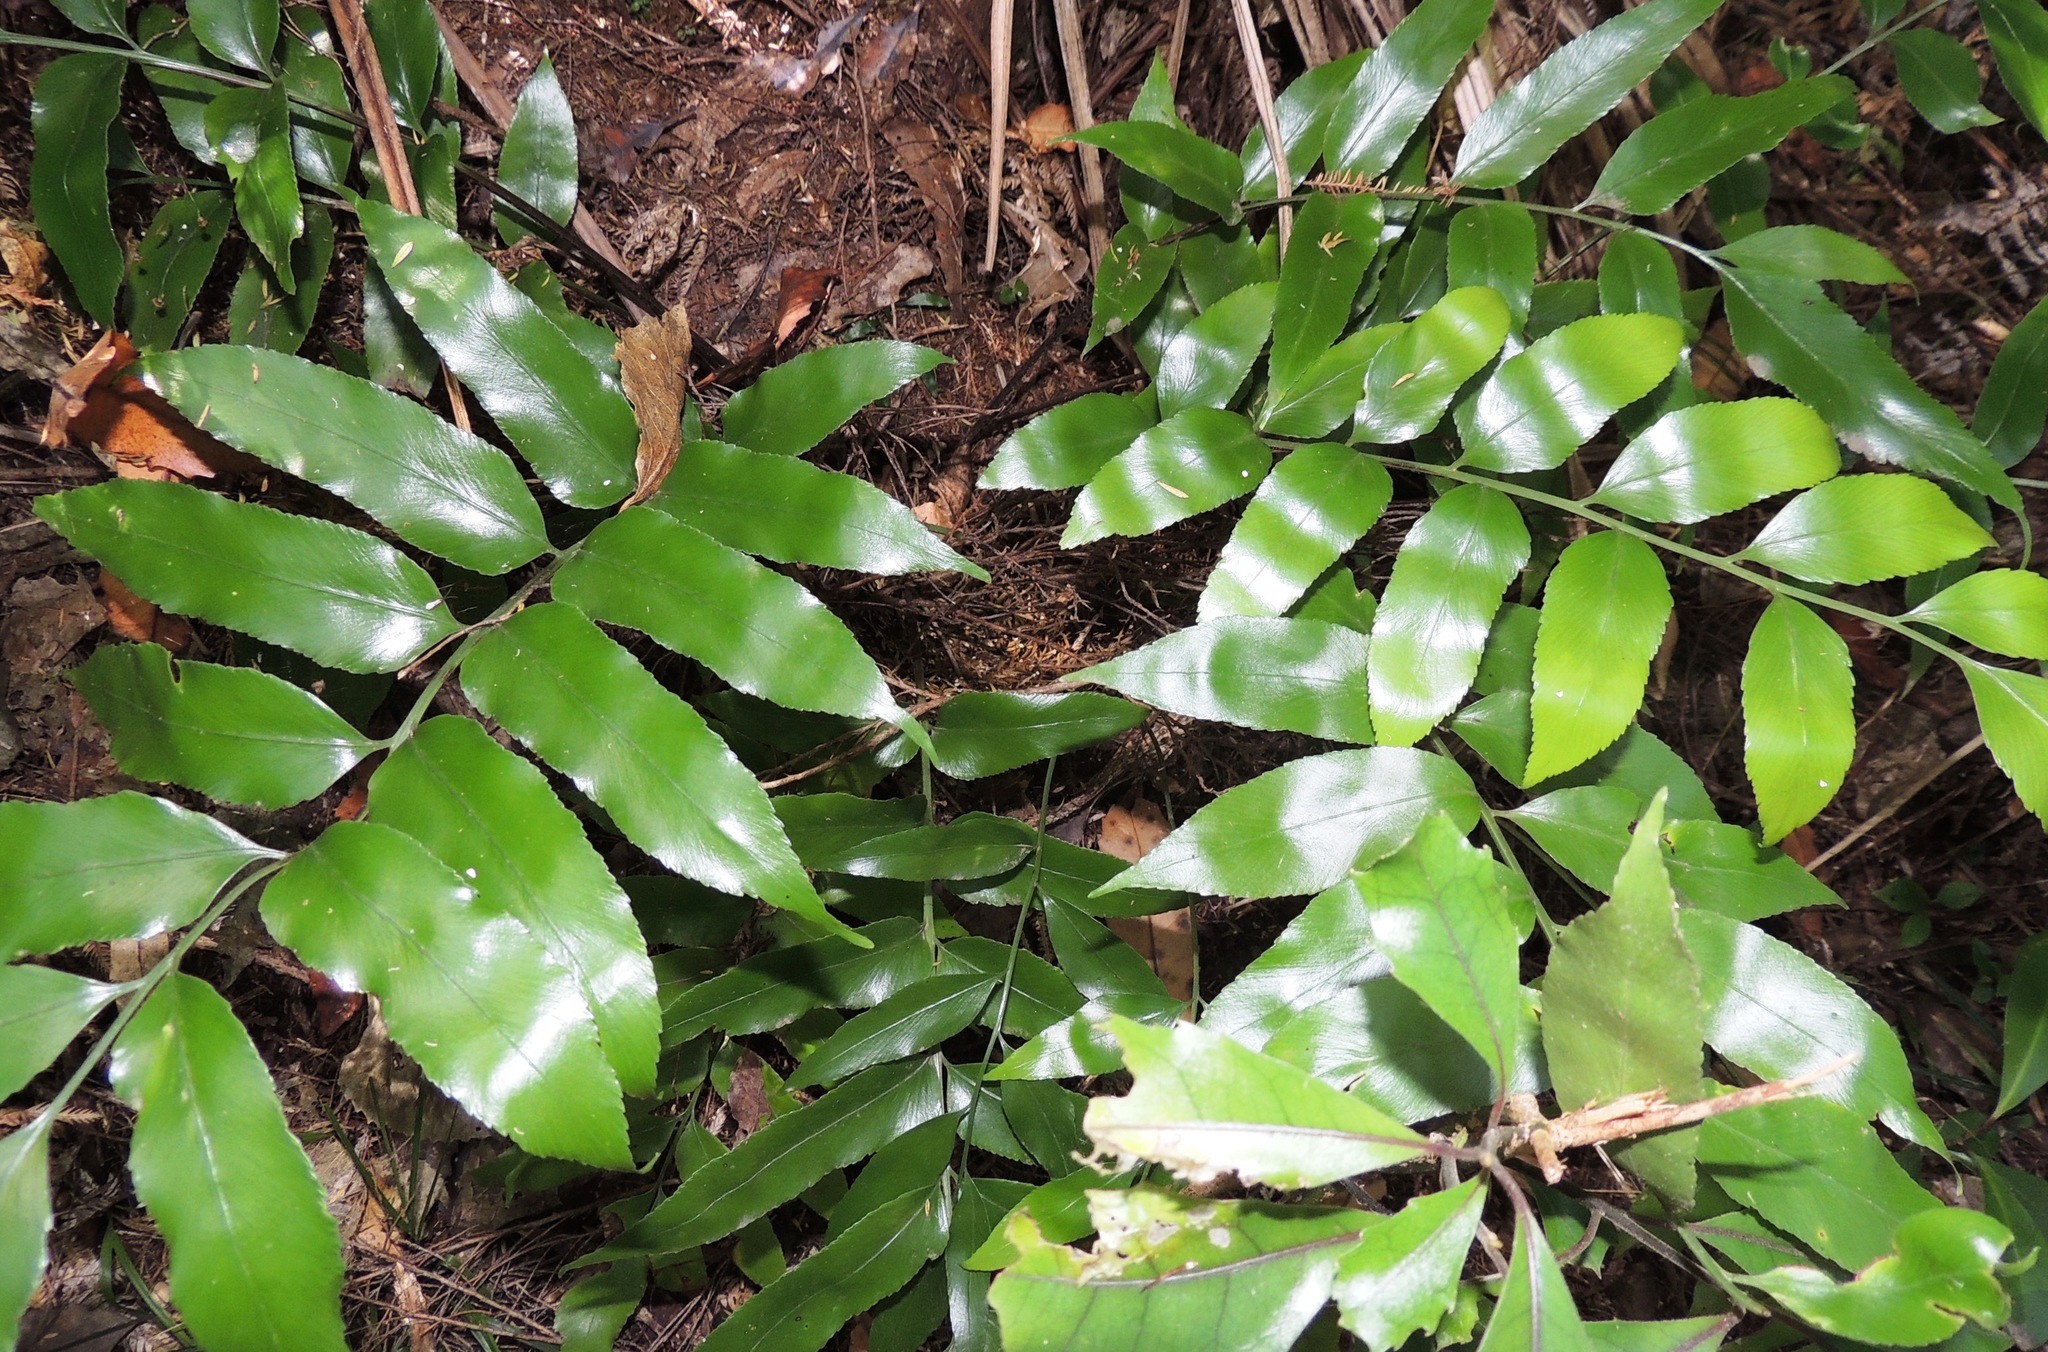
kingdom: Plantae
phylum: Tracheophyta
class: Polypodiopsida
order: Polypodiales
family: Aspleniaceae
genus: Asplenium
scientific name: Asplenium oblongifolium
